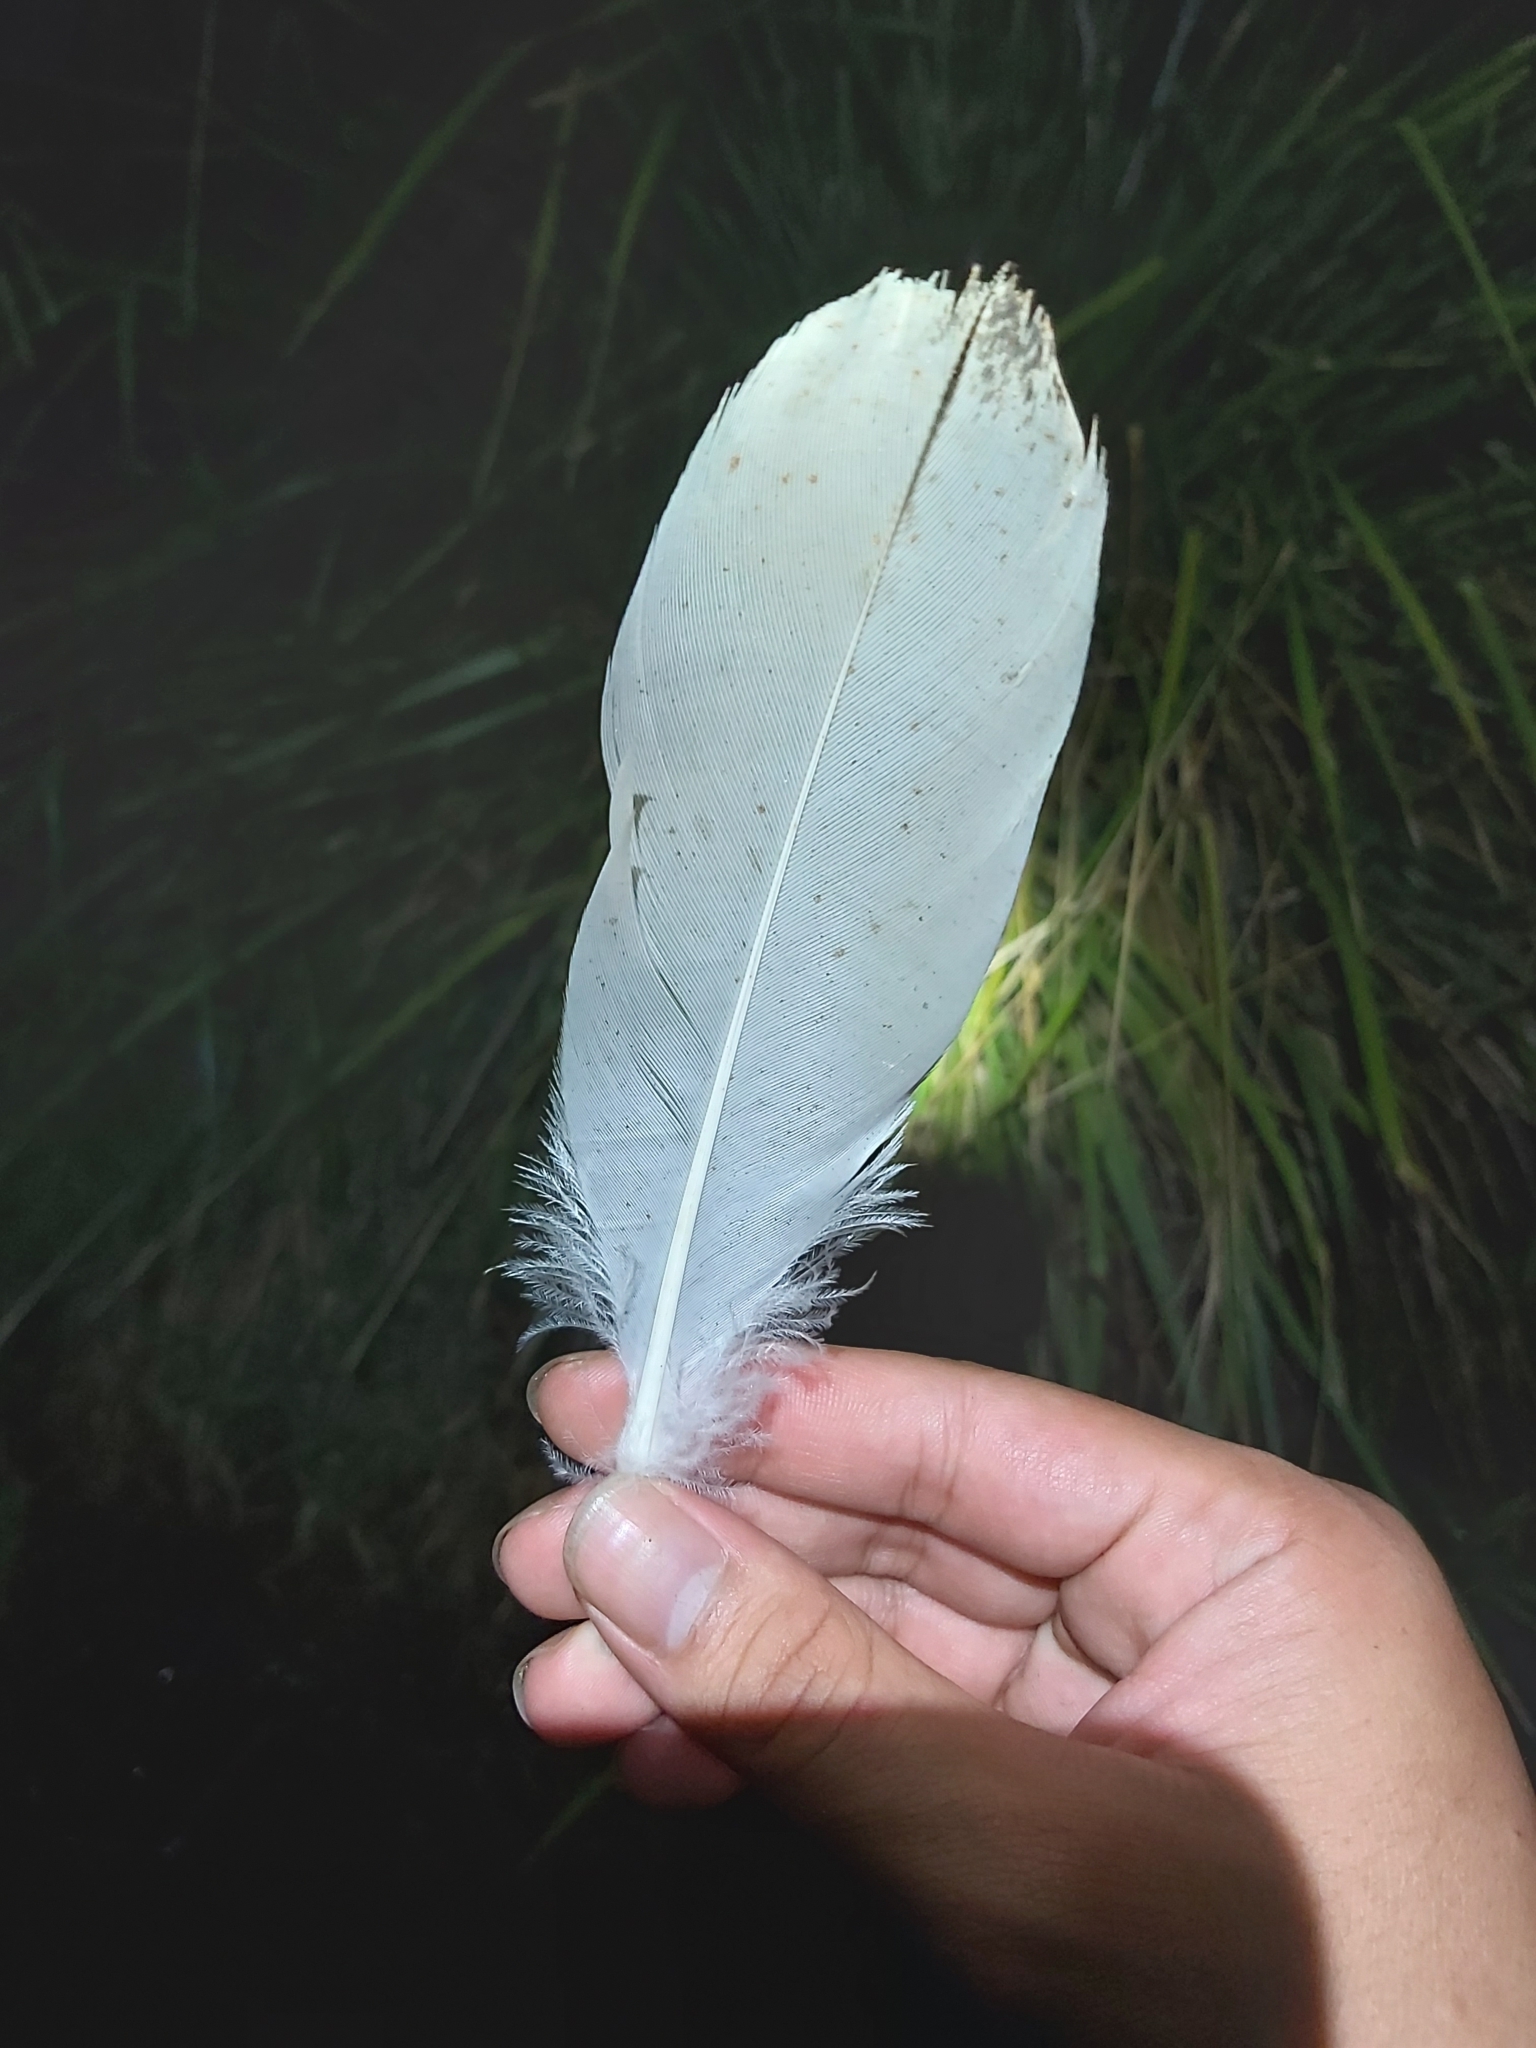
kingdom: Animalia
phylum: Chordata
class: Aves
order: Pelecaniformes
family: Threskiornithidae
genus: Threskiornis
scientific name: Threskiornis molucca
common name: Australian white ibis
